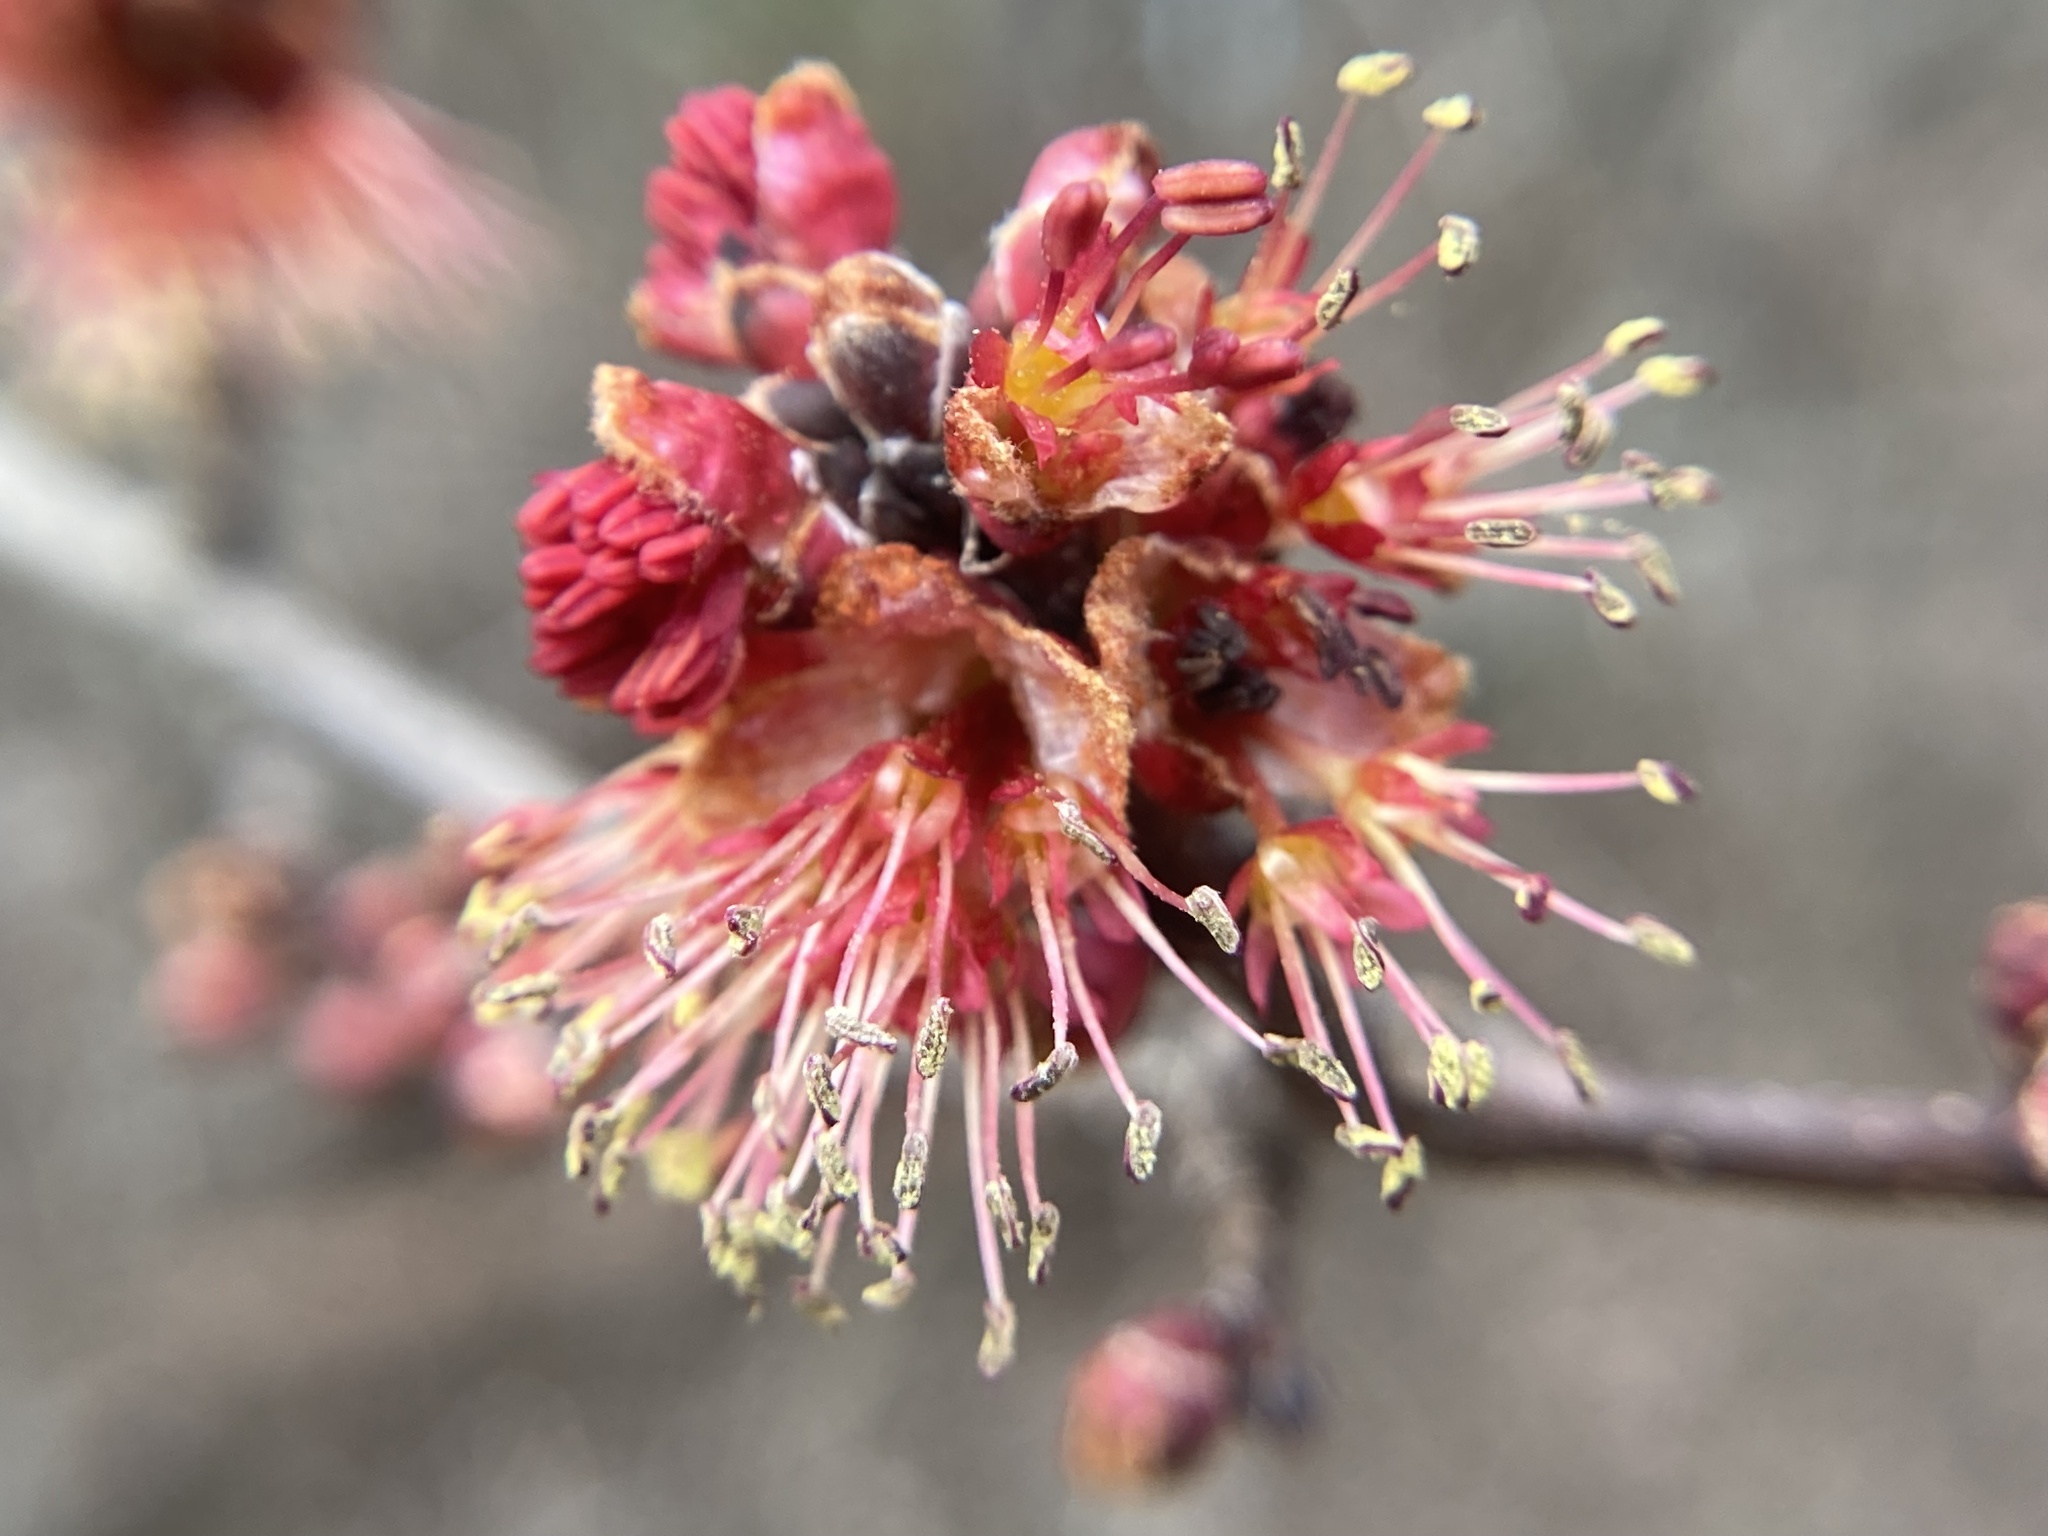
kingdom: Plantae
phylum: Tracheophyta
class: Magnoliopsida
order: Sapindales
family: Sapindaceae
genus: Acer
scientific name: Acer rubrum
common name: Red maple
